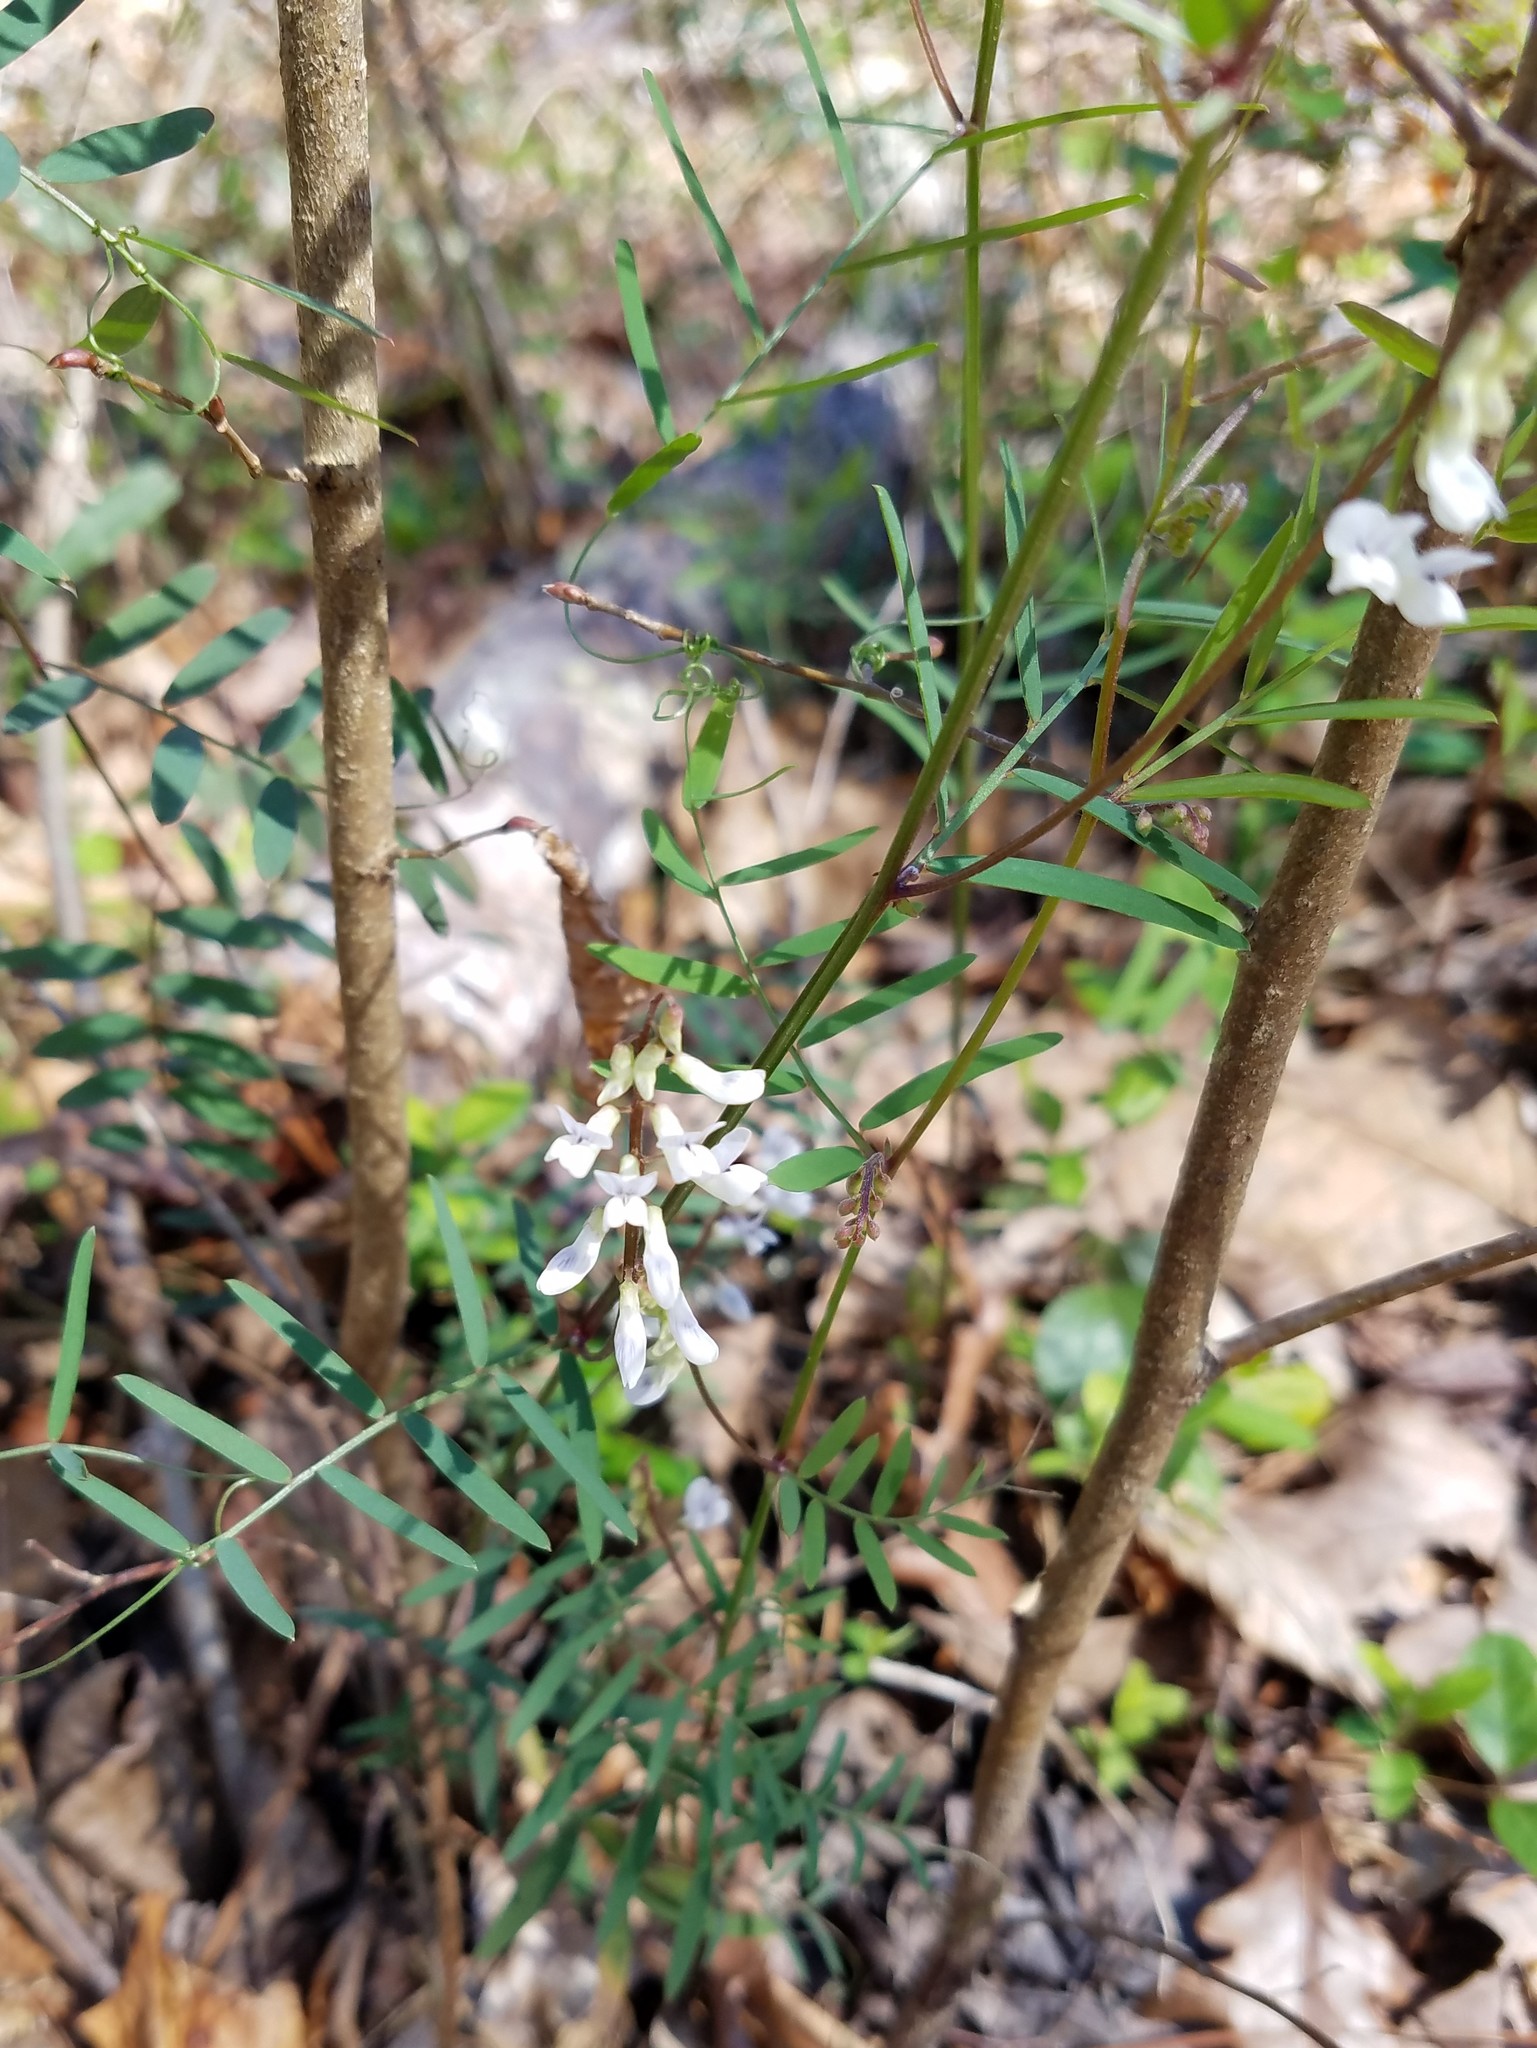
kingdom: Plantae
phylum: Tracheophyta
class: Magnoliopsida
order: Fabales
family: Fabaceae
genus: Vicia
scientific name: Vicia caroliniana
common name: Carolina vetch
